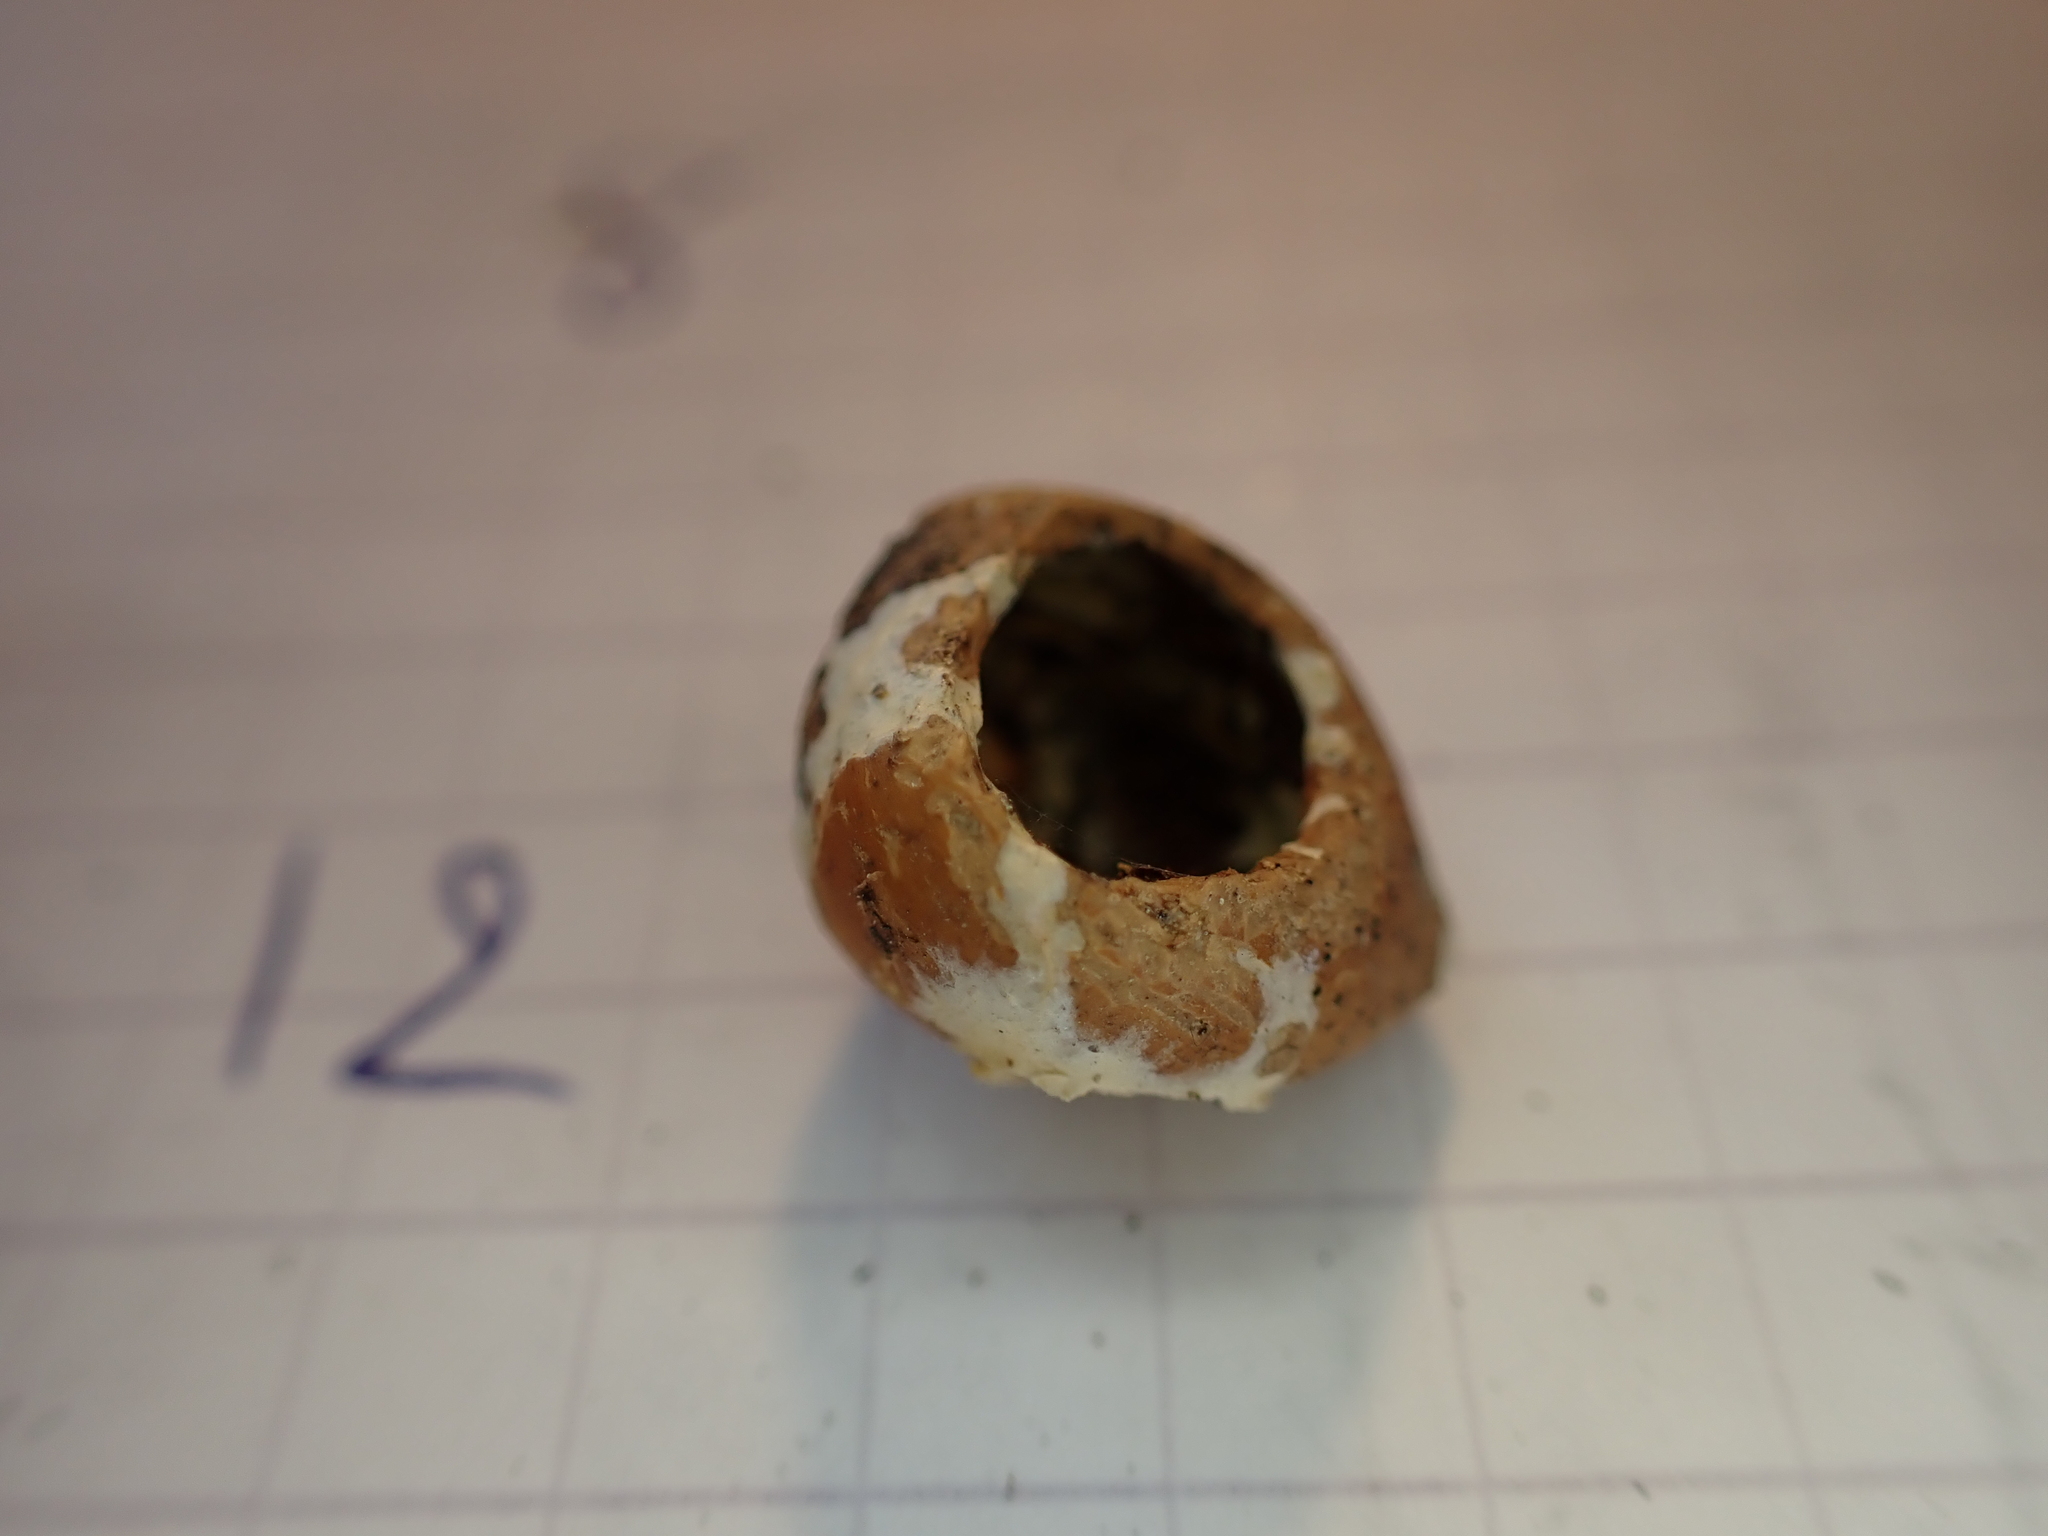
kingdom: Animalia
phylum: Chordata
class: Mammalia
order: Rodentia
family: Gliridae
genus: Muscardinus
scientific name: Muscardinus avellanarius
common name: Hazel dormouse
